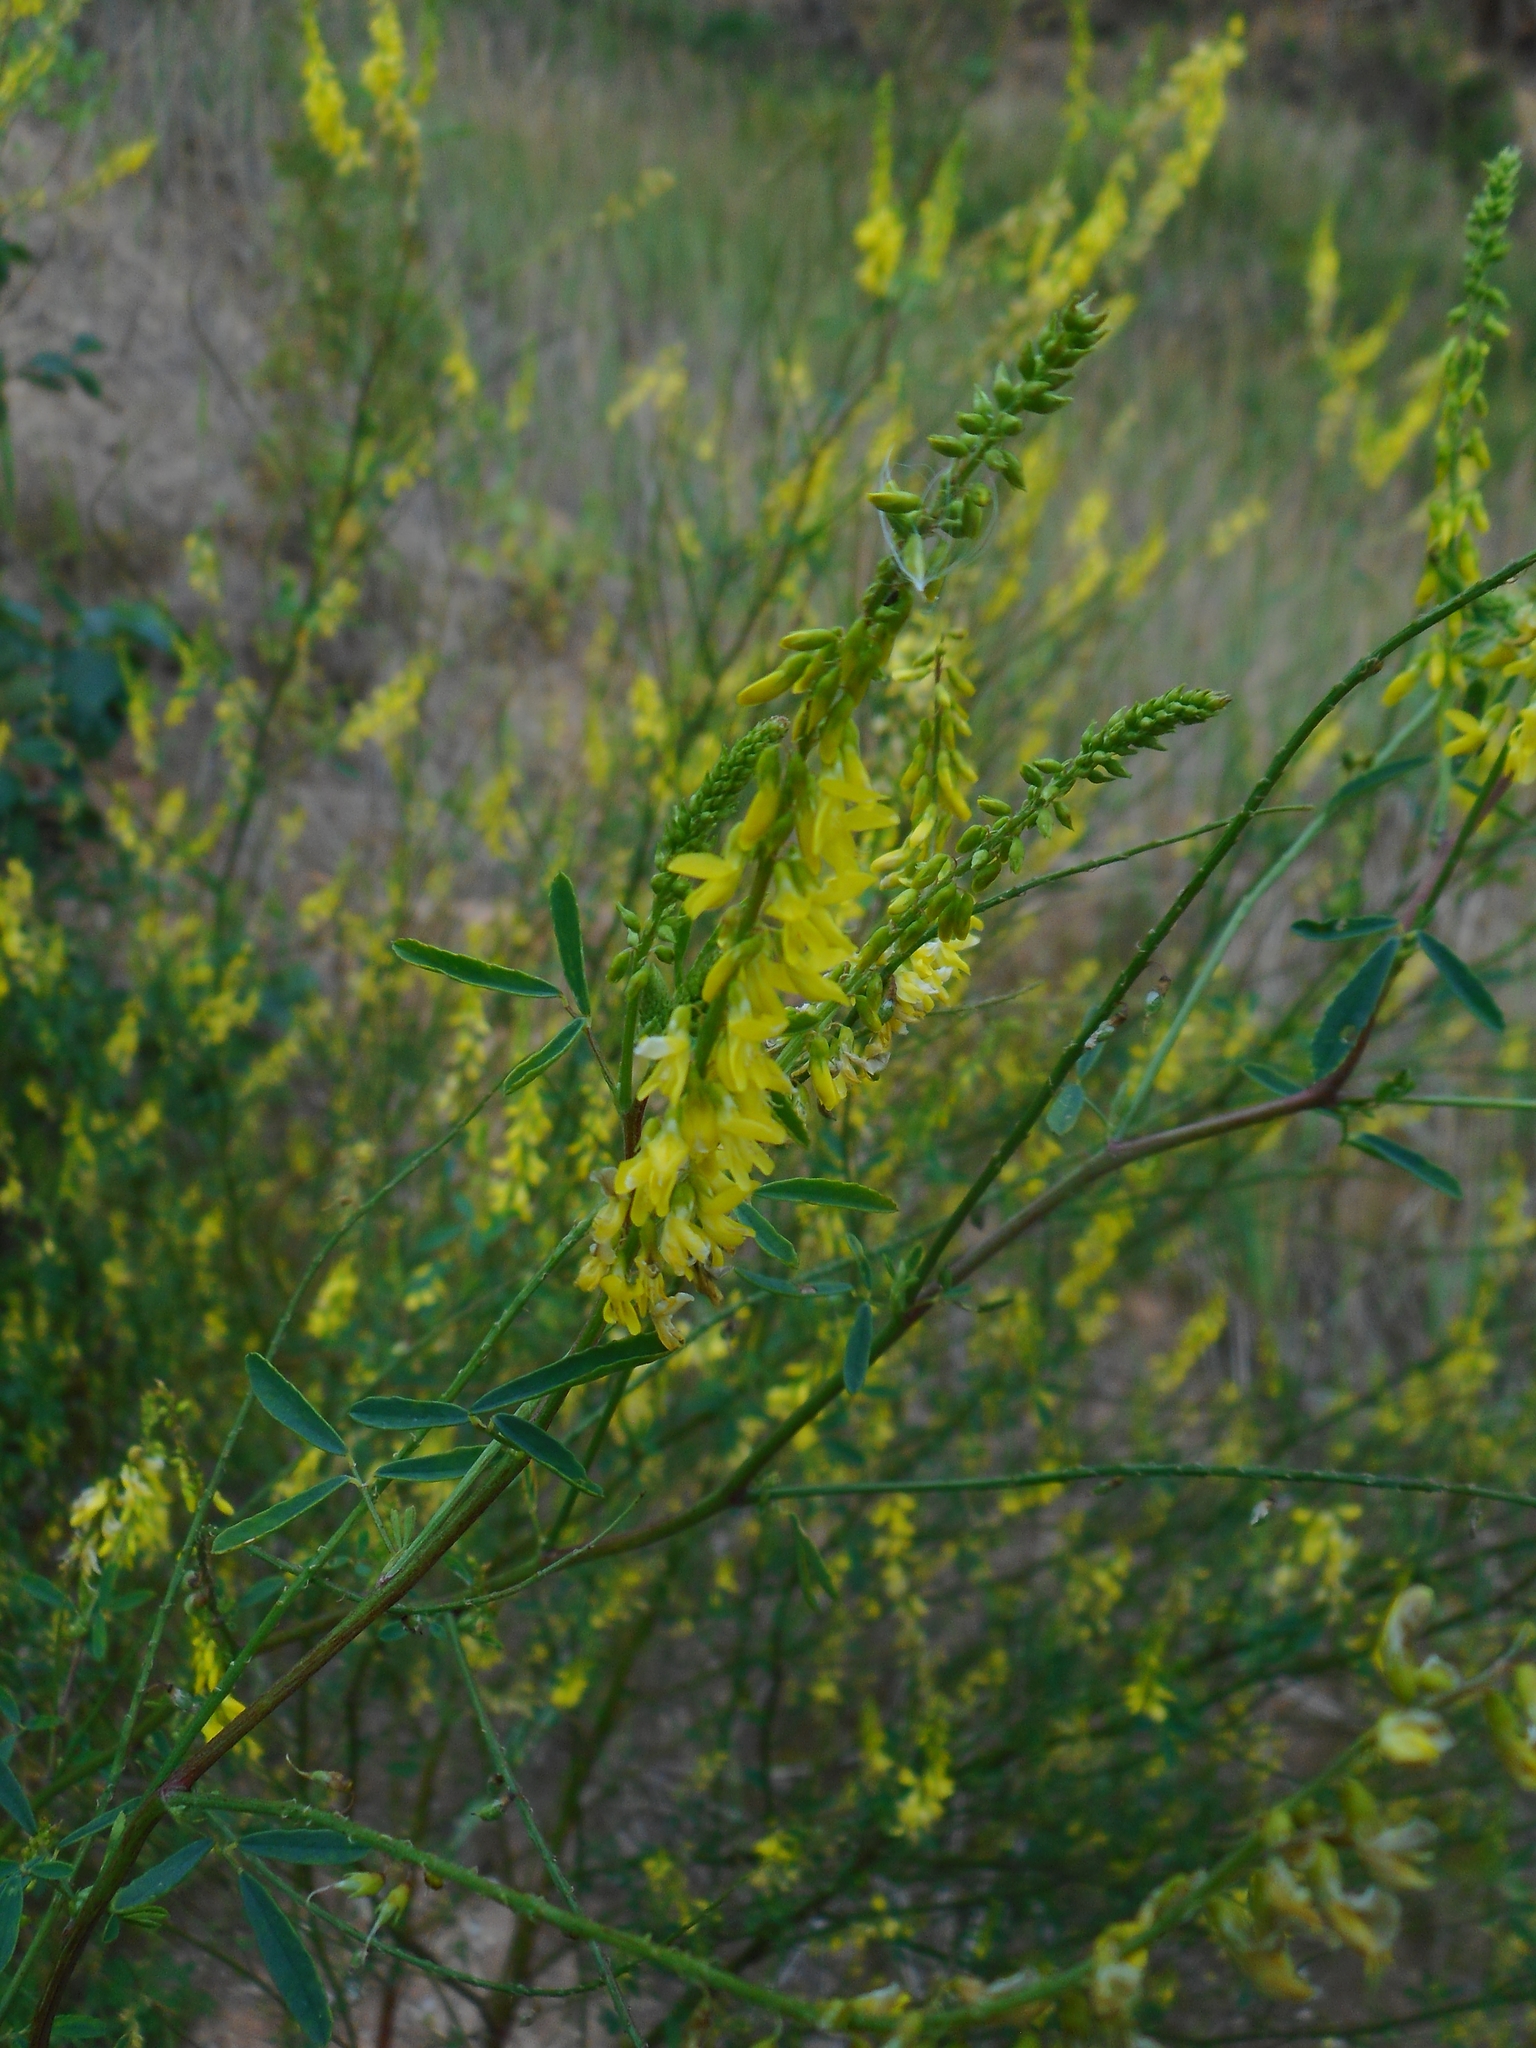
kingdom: Plantae
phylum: Tracheophyta
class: Magnoliopsida
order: Fabales
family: Fabaceae
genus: Melilotus
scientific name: Melilotus officinalis
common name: Sweetclover
